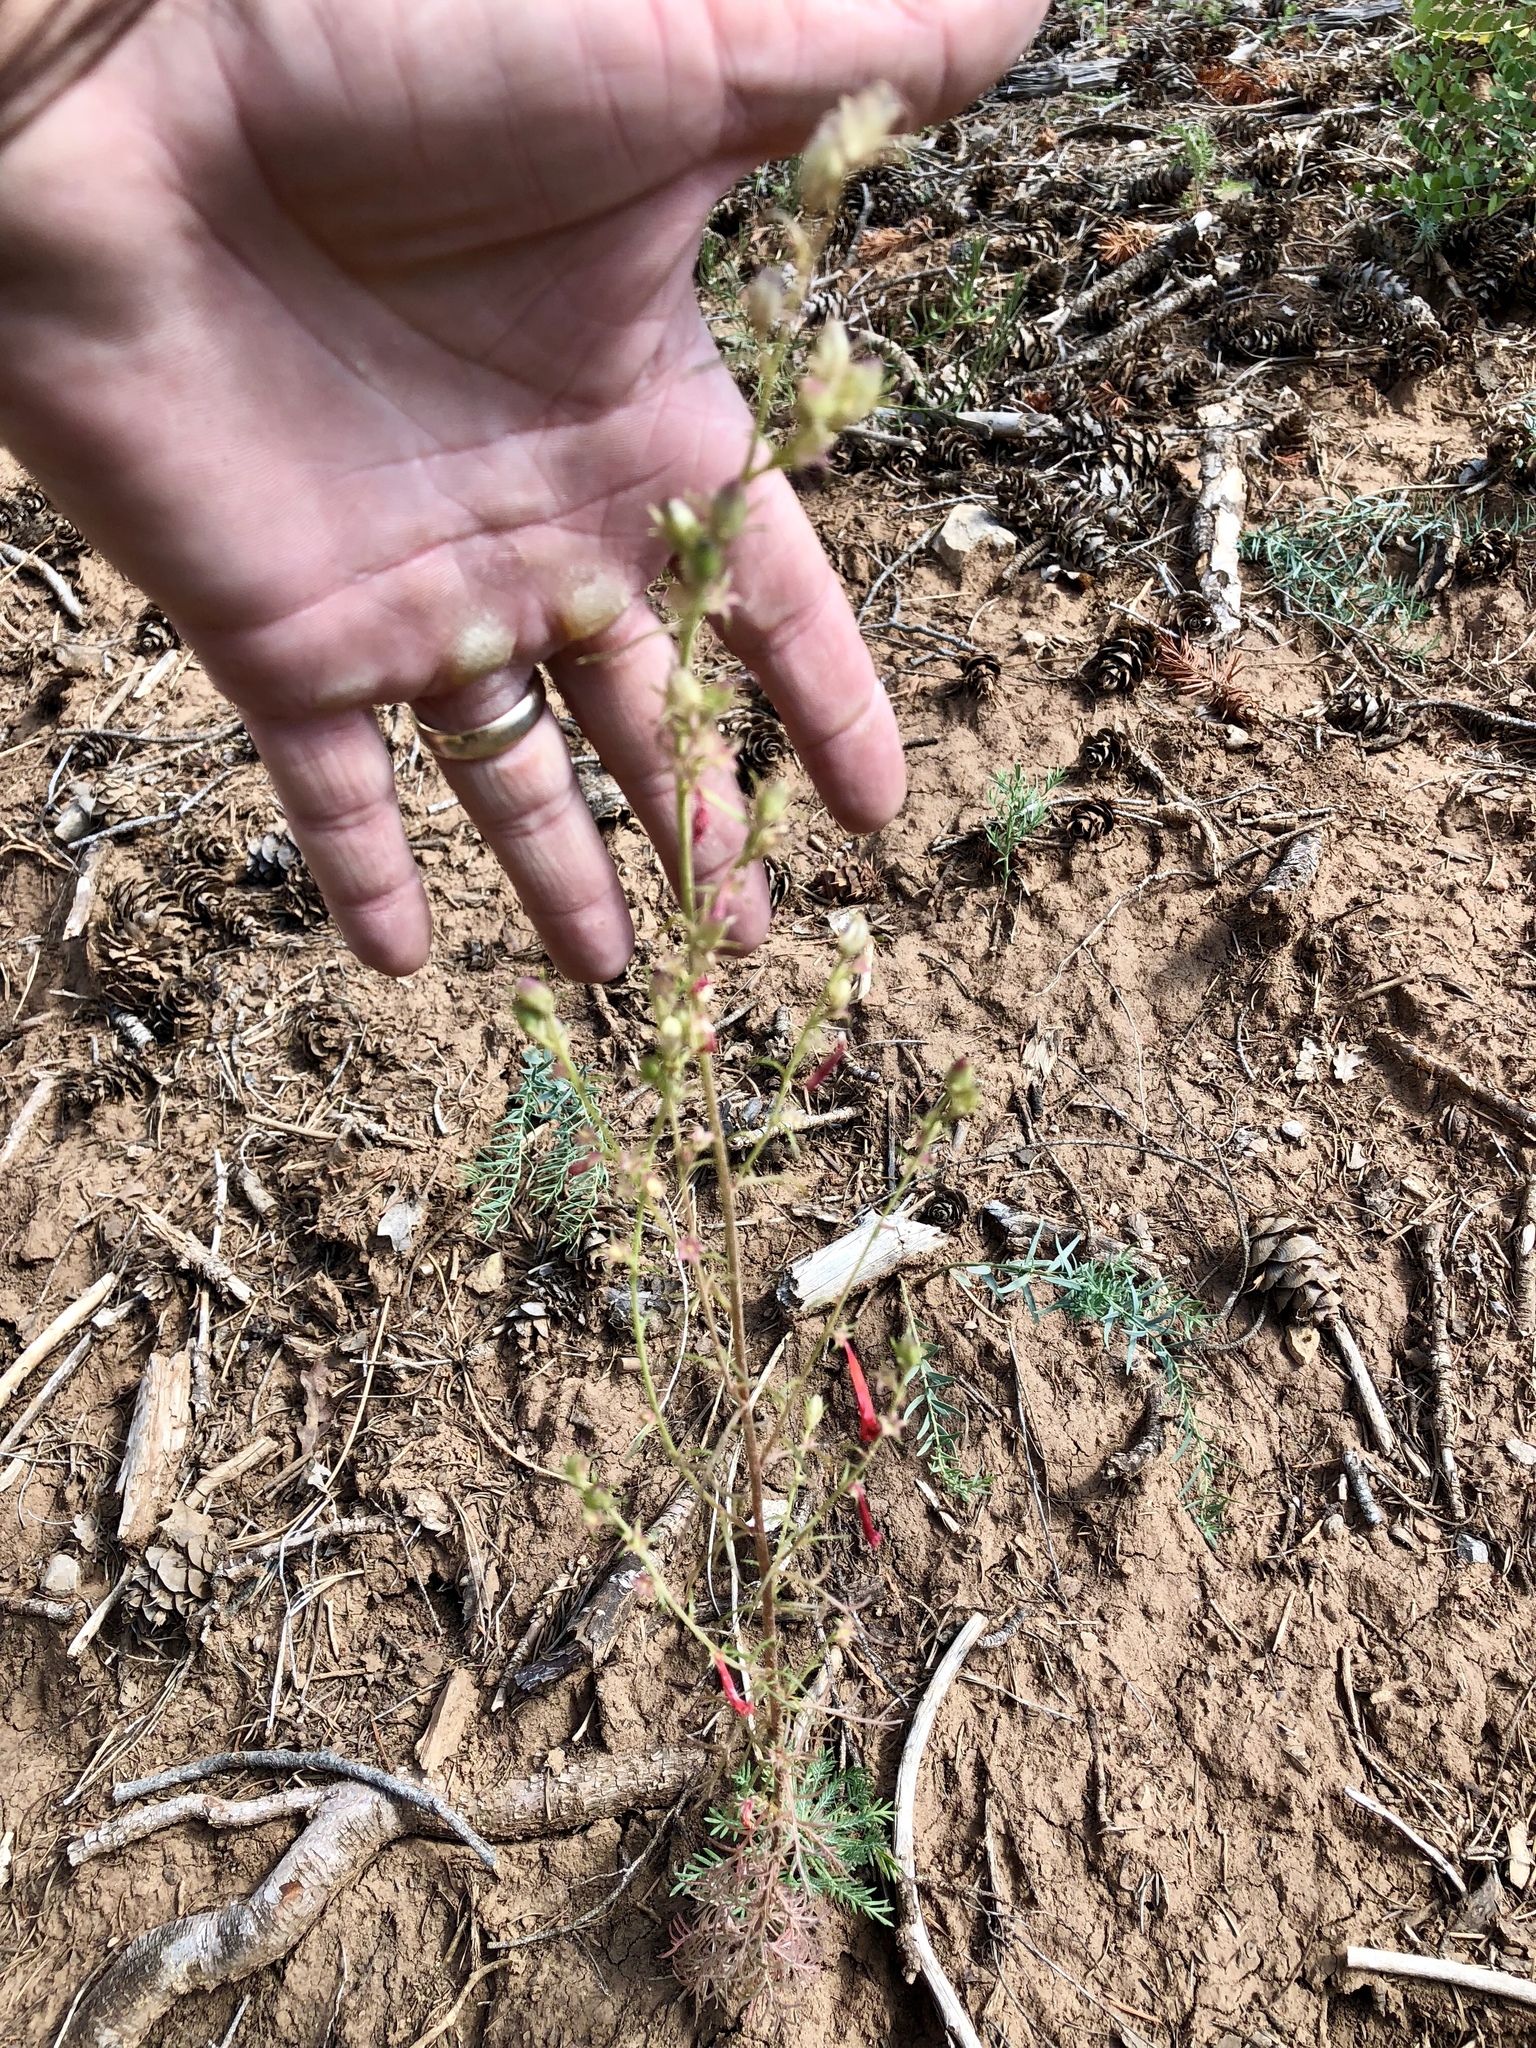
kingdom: Plantae
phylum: Tracheophyta
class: Magnoliopsida
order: Ericales
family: Polemoniaceae
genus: Ipomopsis
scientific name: Ipomopsis aggregata
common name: Scarlet gilia
